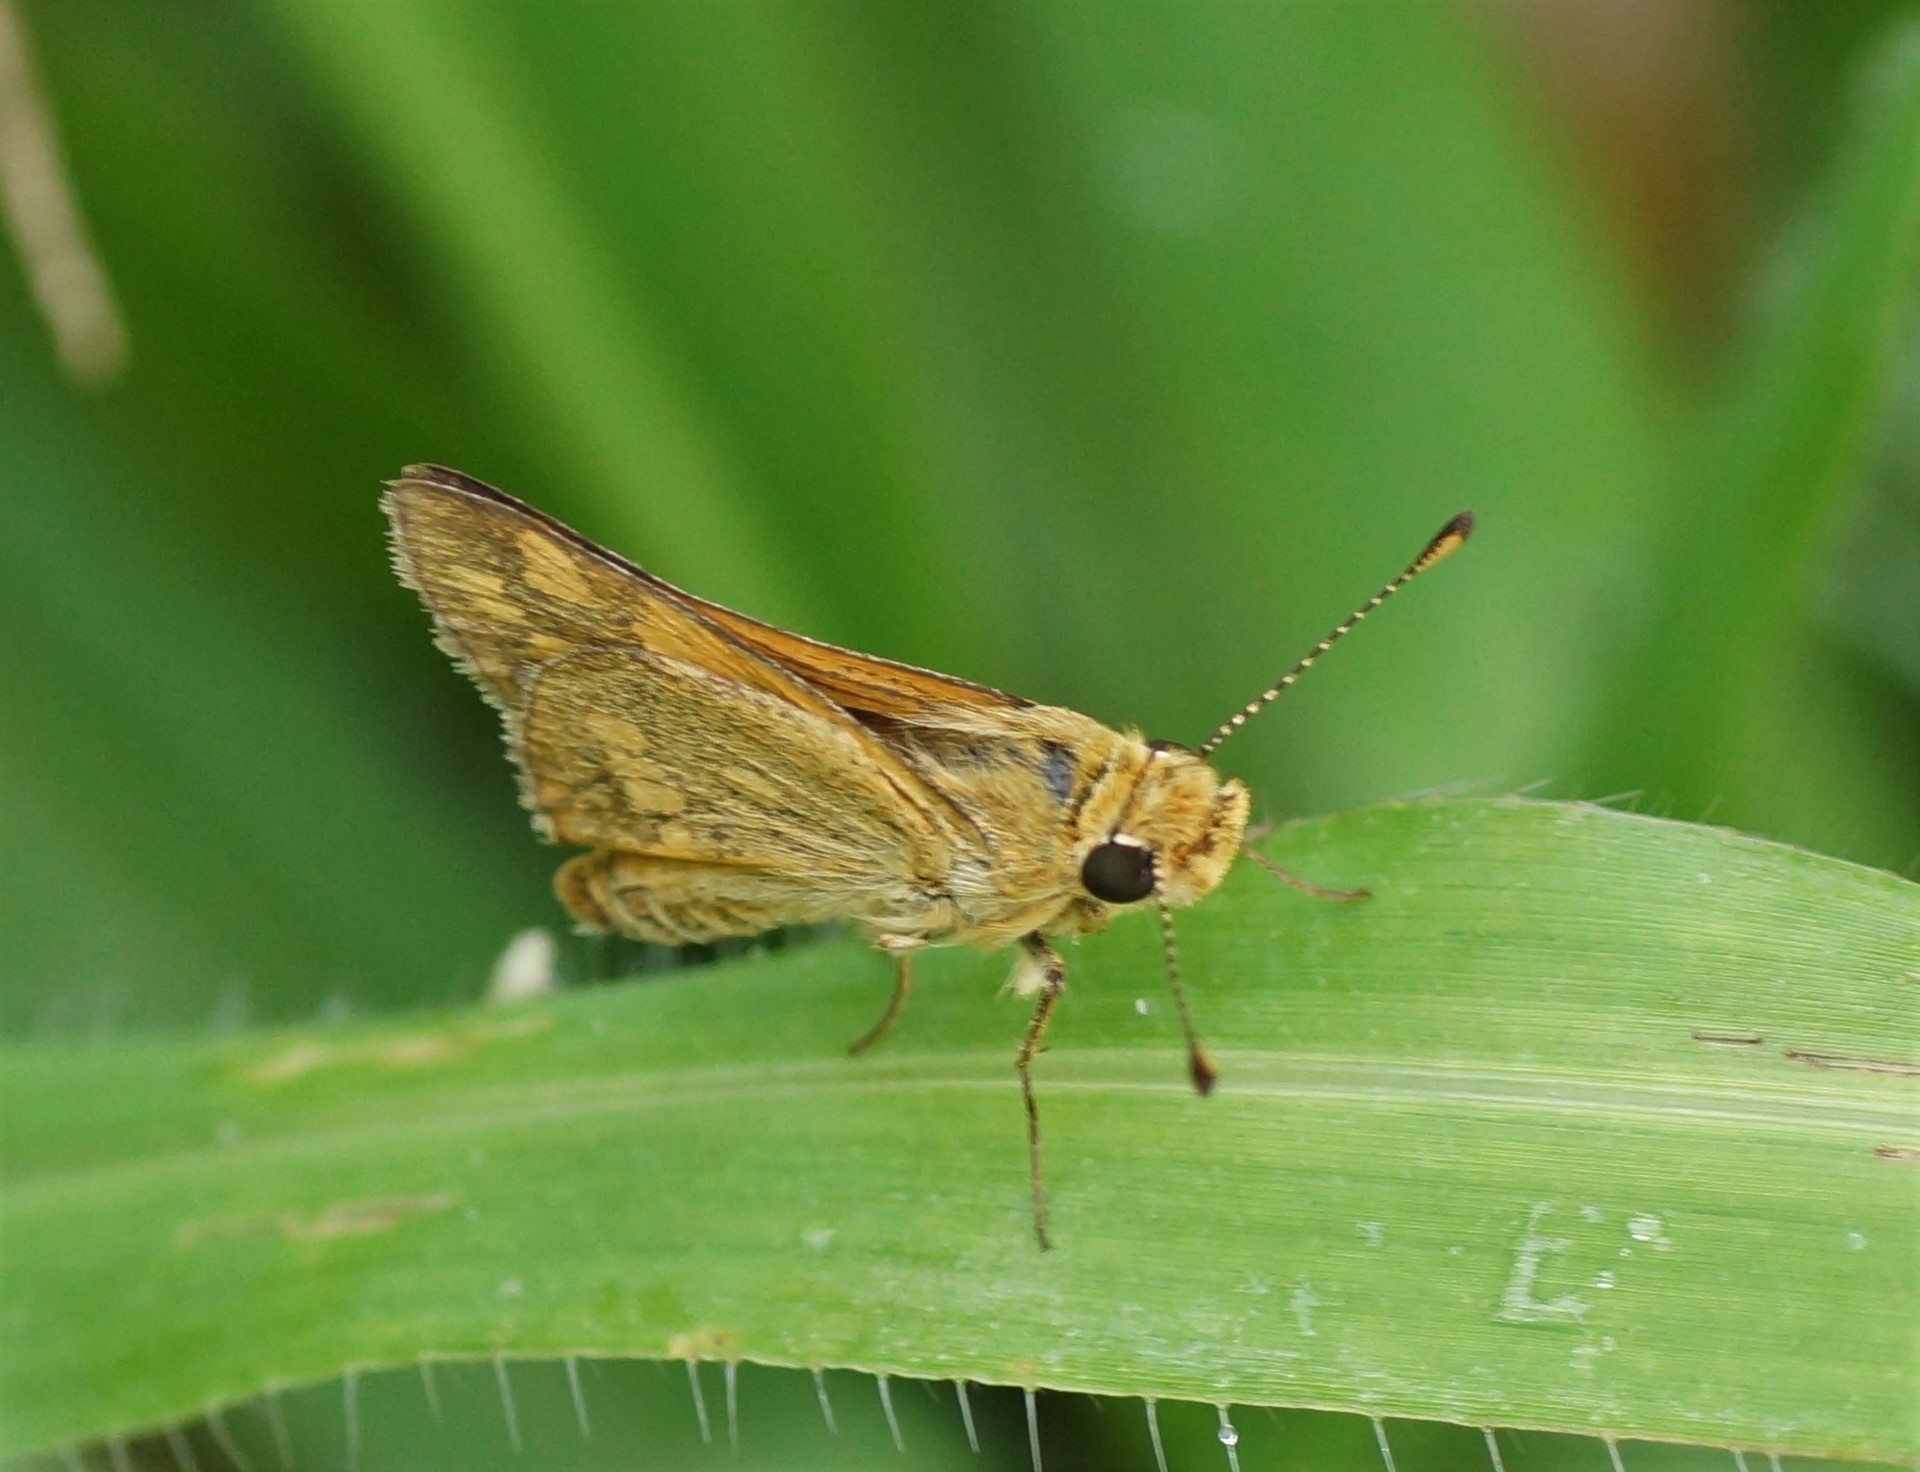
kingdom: Animalia
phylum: Arthropoda
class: Insecta
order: Lepidoptera
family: Hesperiidae
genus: Taractrocera
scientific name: Taractrocera ina
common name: Ina grass-dart
